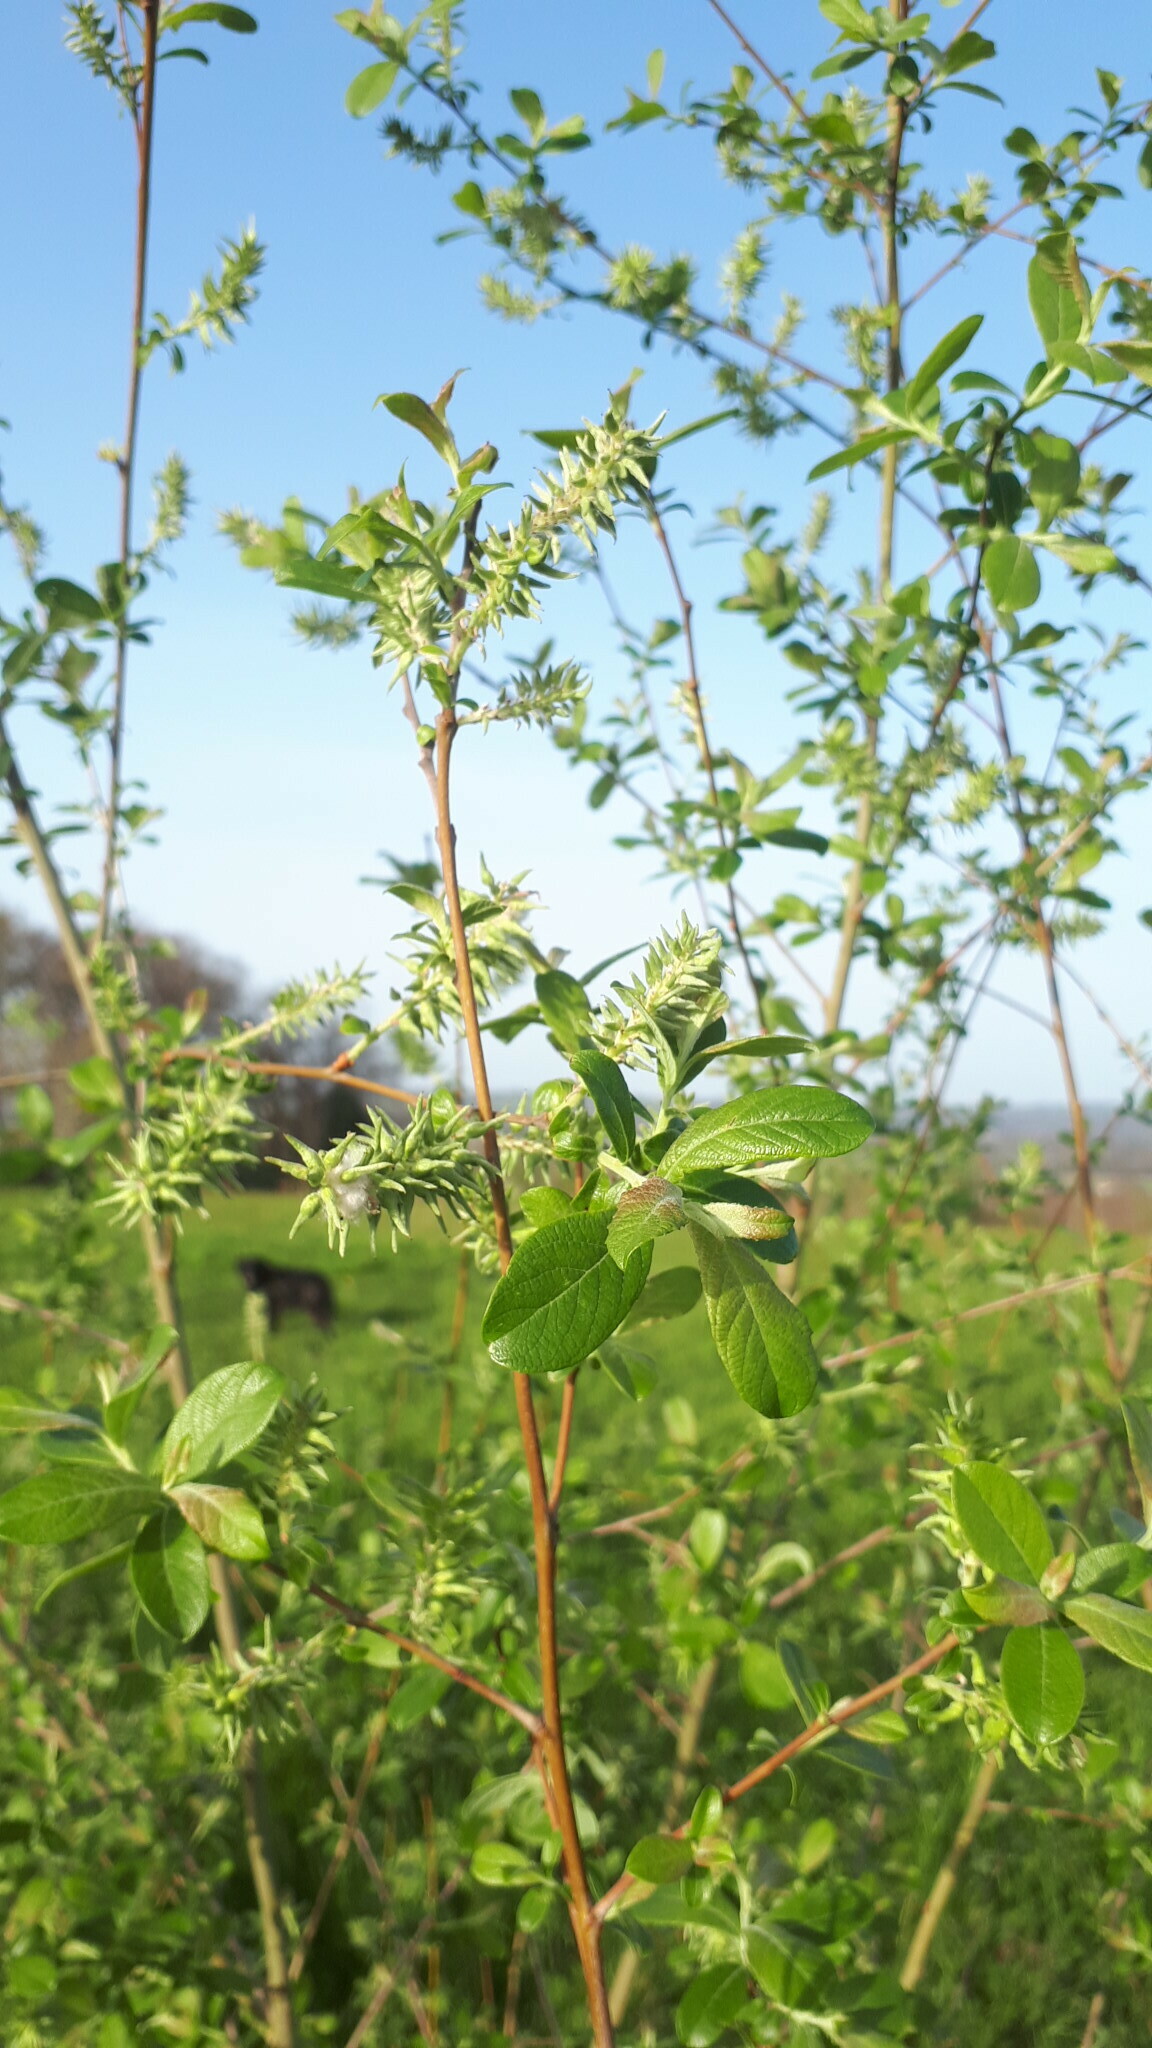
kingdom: Plantae
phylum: Tracheophyta
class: Magnoliopsida
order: Malpighiales
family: Salicaceae
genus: Salix
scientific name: Salix atrocinerea
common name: Rusty willow
